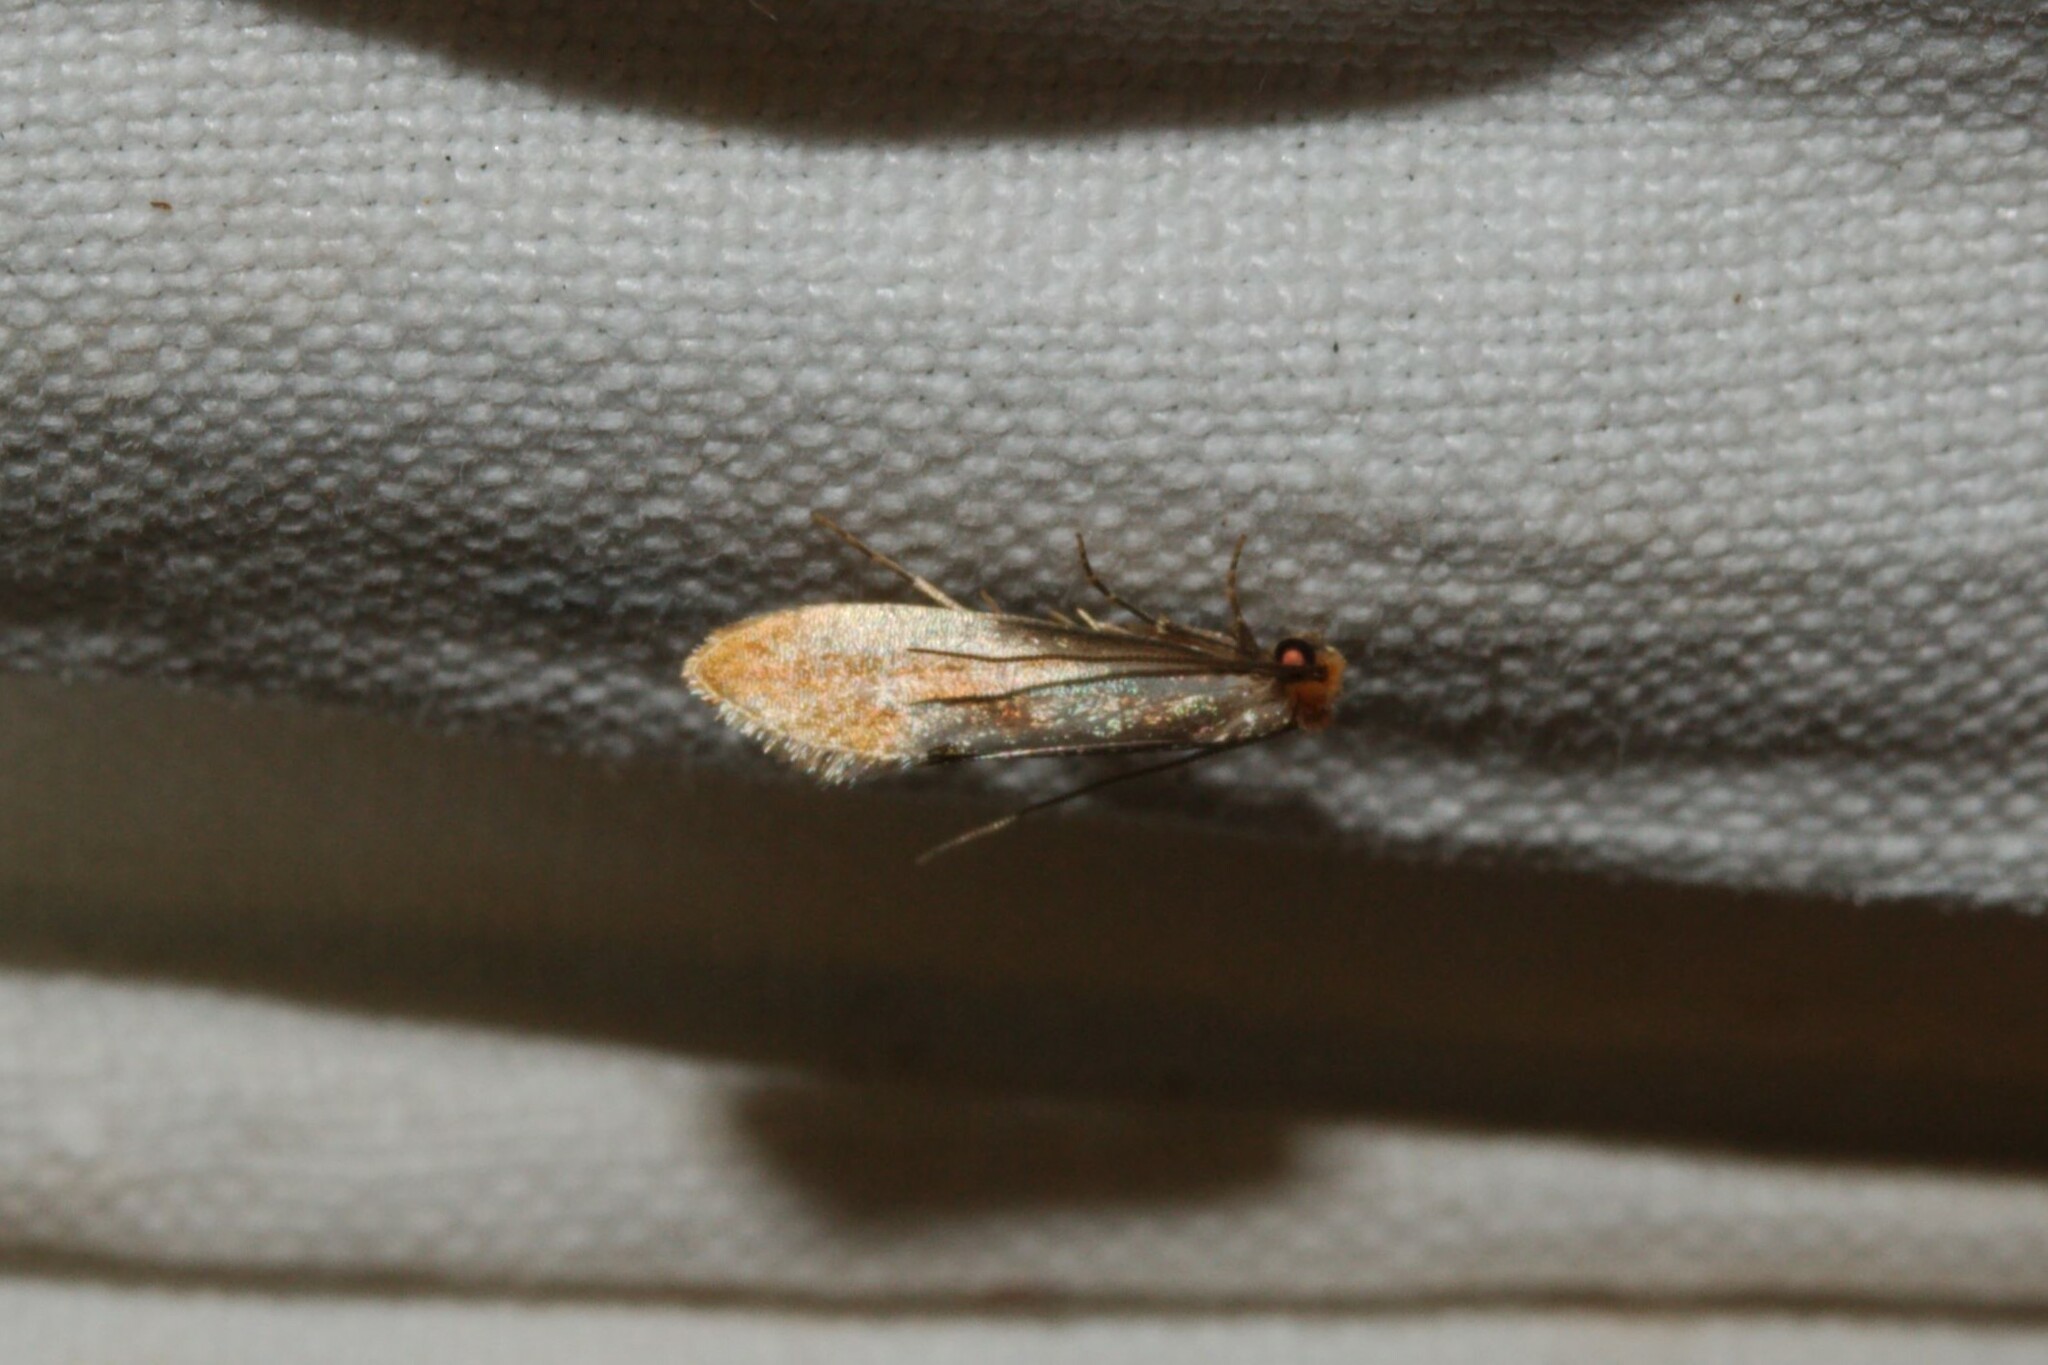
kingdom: Animalia
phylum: Arthropoda
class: Insecta
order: Lepidoptera
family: Tineidae
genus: Tinea
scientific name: Tinea semifulvella
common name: Fulvous clothes
